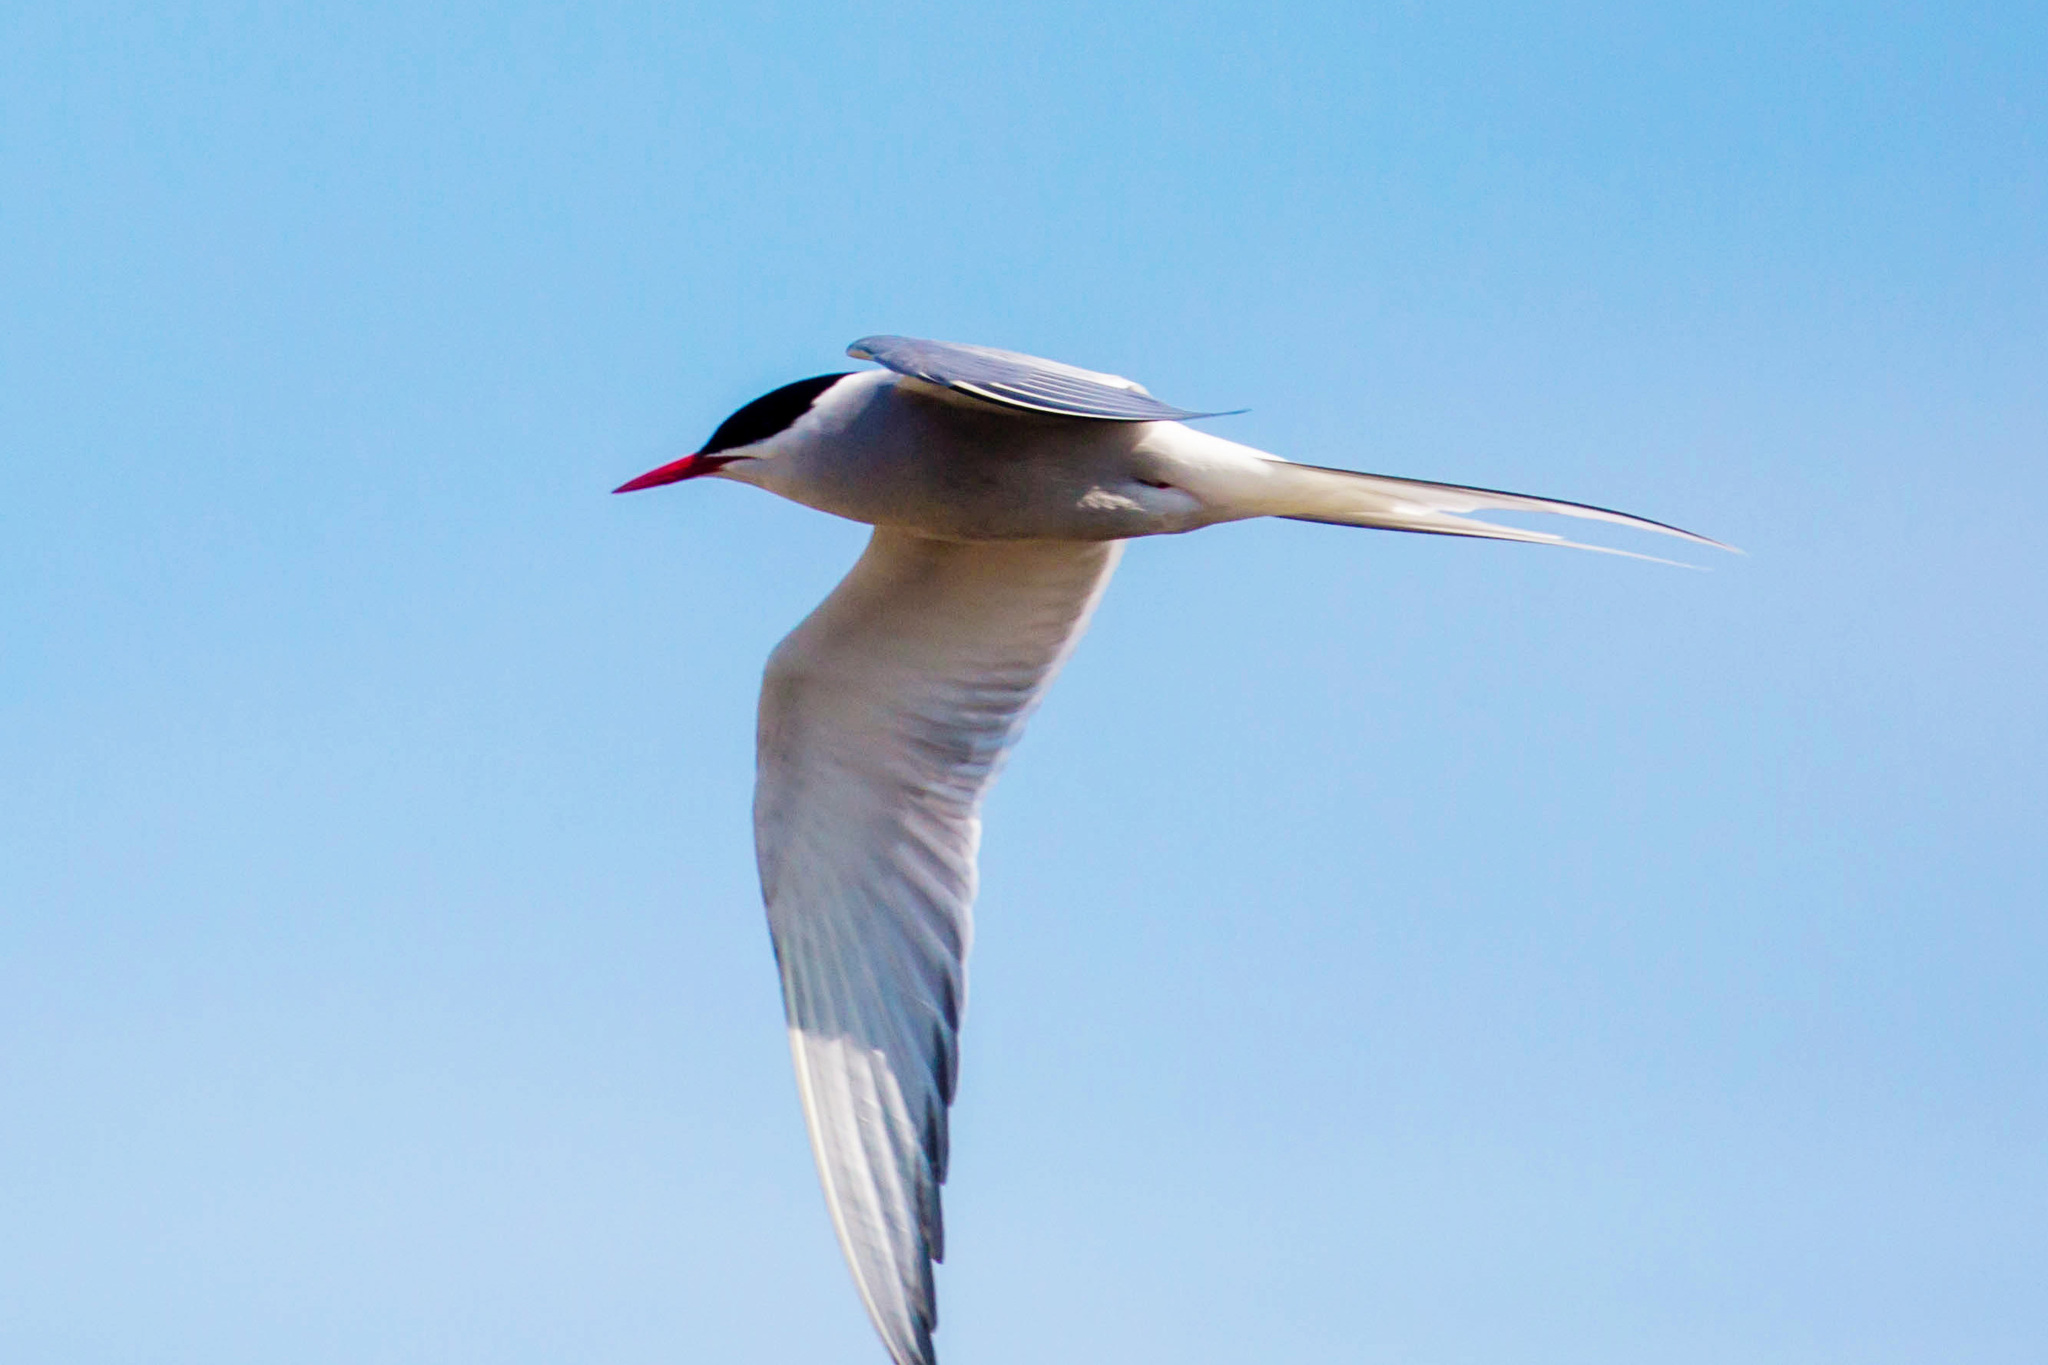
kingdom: Animalia
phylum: Chordata
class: Aves
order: Charadriiformes
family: Laridae
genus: Sterna
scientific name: Sterna paradisaea
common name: Arctic tern
